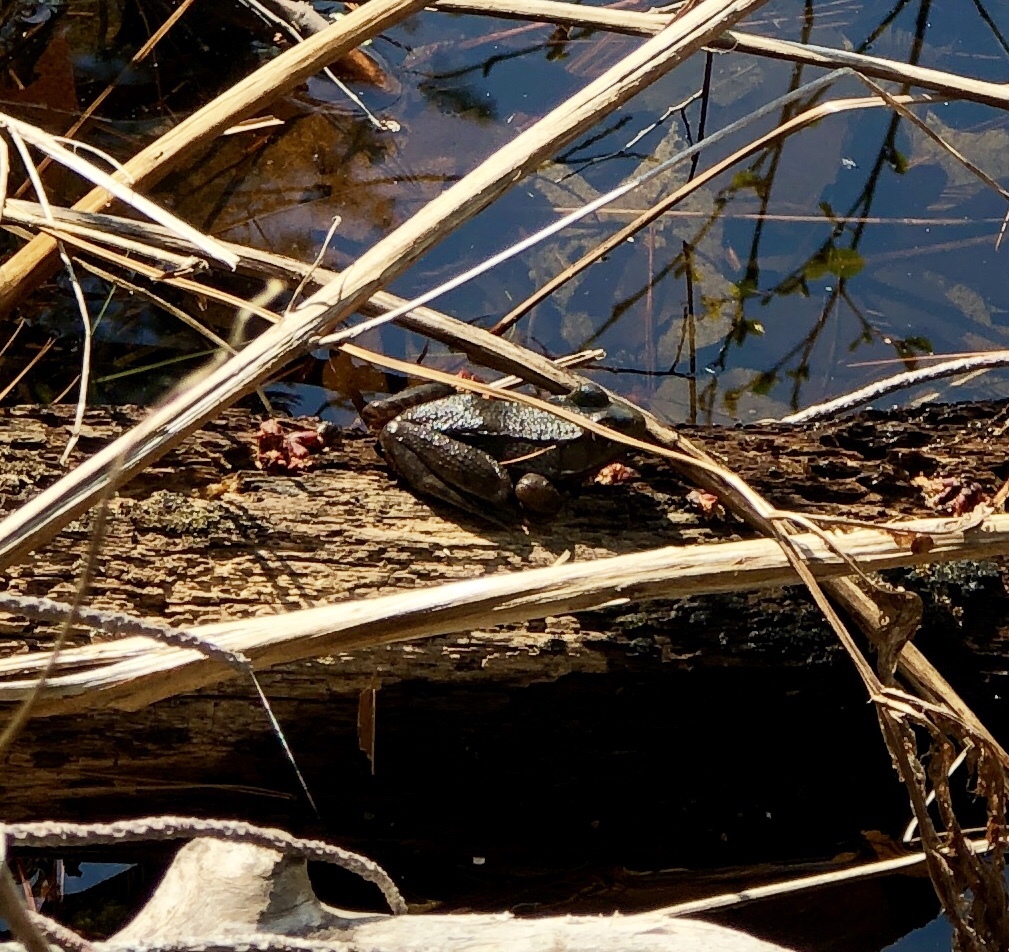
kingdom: Animalia
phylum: Chordata
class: Amphibia
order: Anura
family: Ranidae
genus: Lithobates
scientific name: Lithobates clamitans
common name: Green frog
